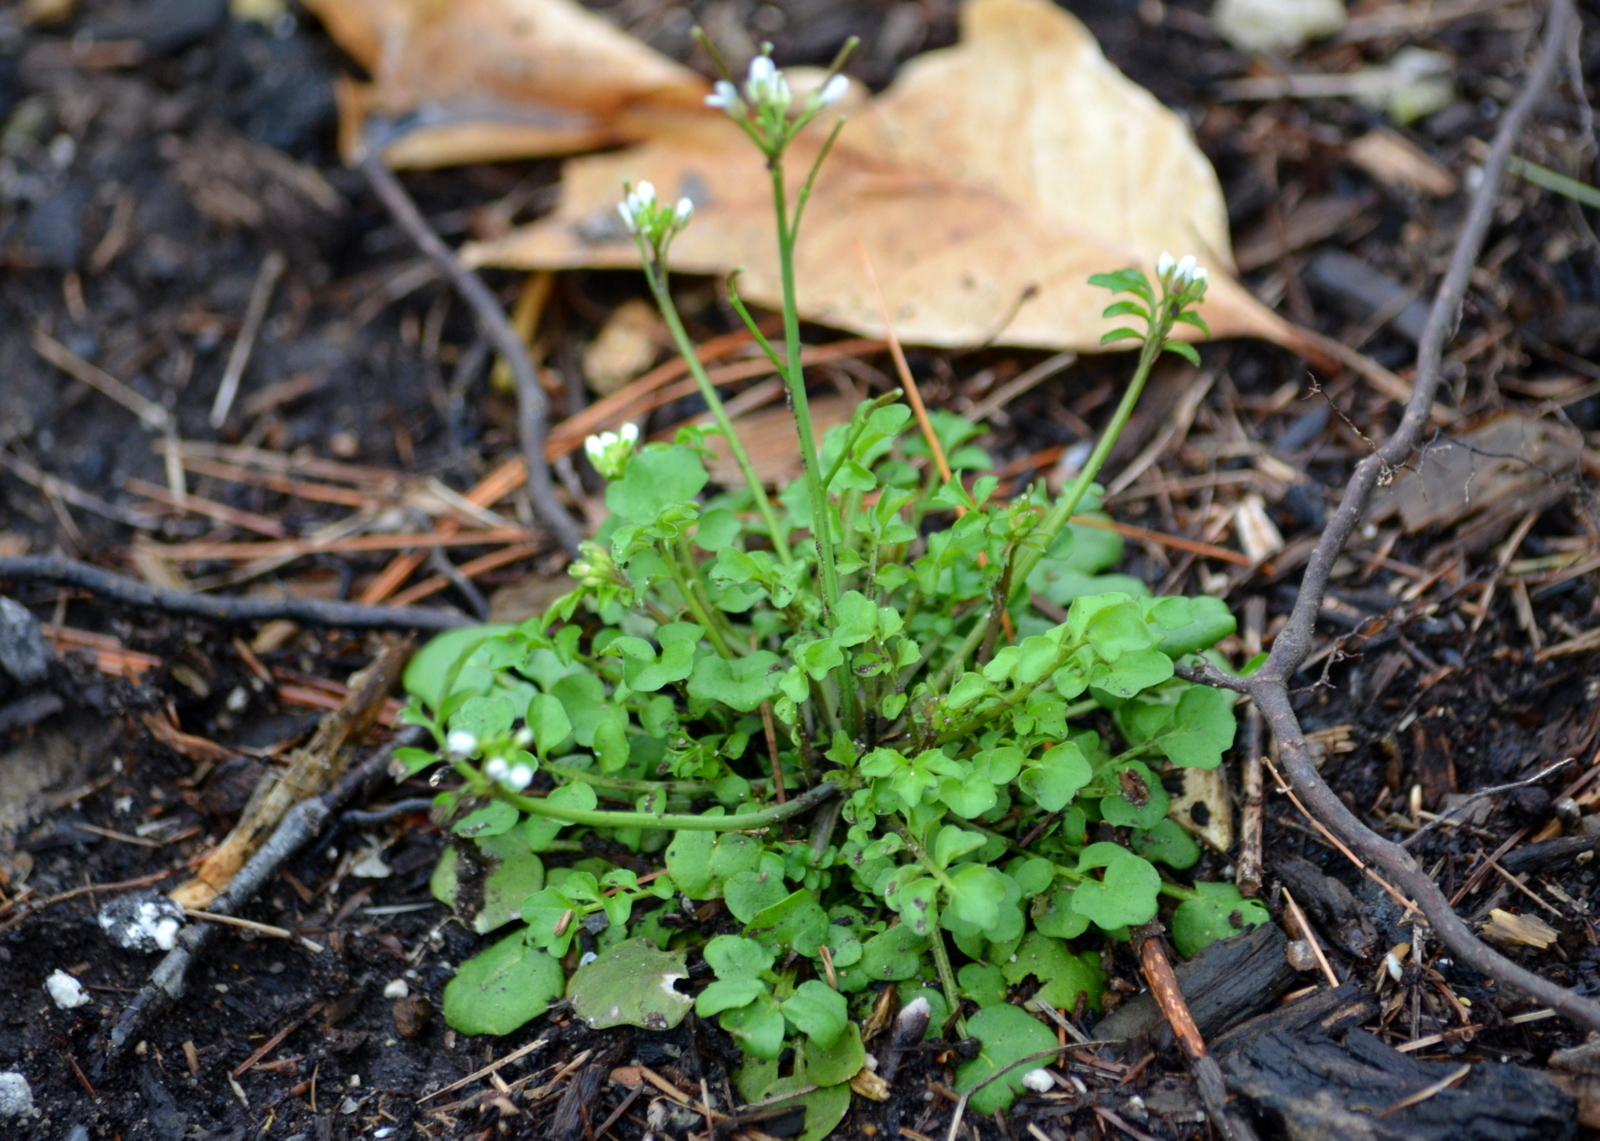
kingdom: Plantae
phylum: Tracheophyta
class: Magnoliopsida
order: Brassicales
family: Brassicaceae
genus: Cardamine
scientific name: Cardamine hirsuta
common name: Hairy bittercress
